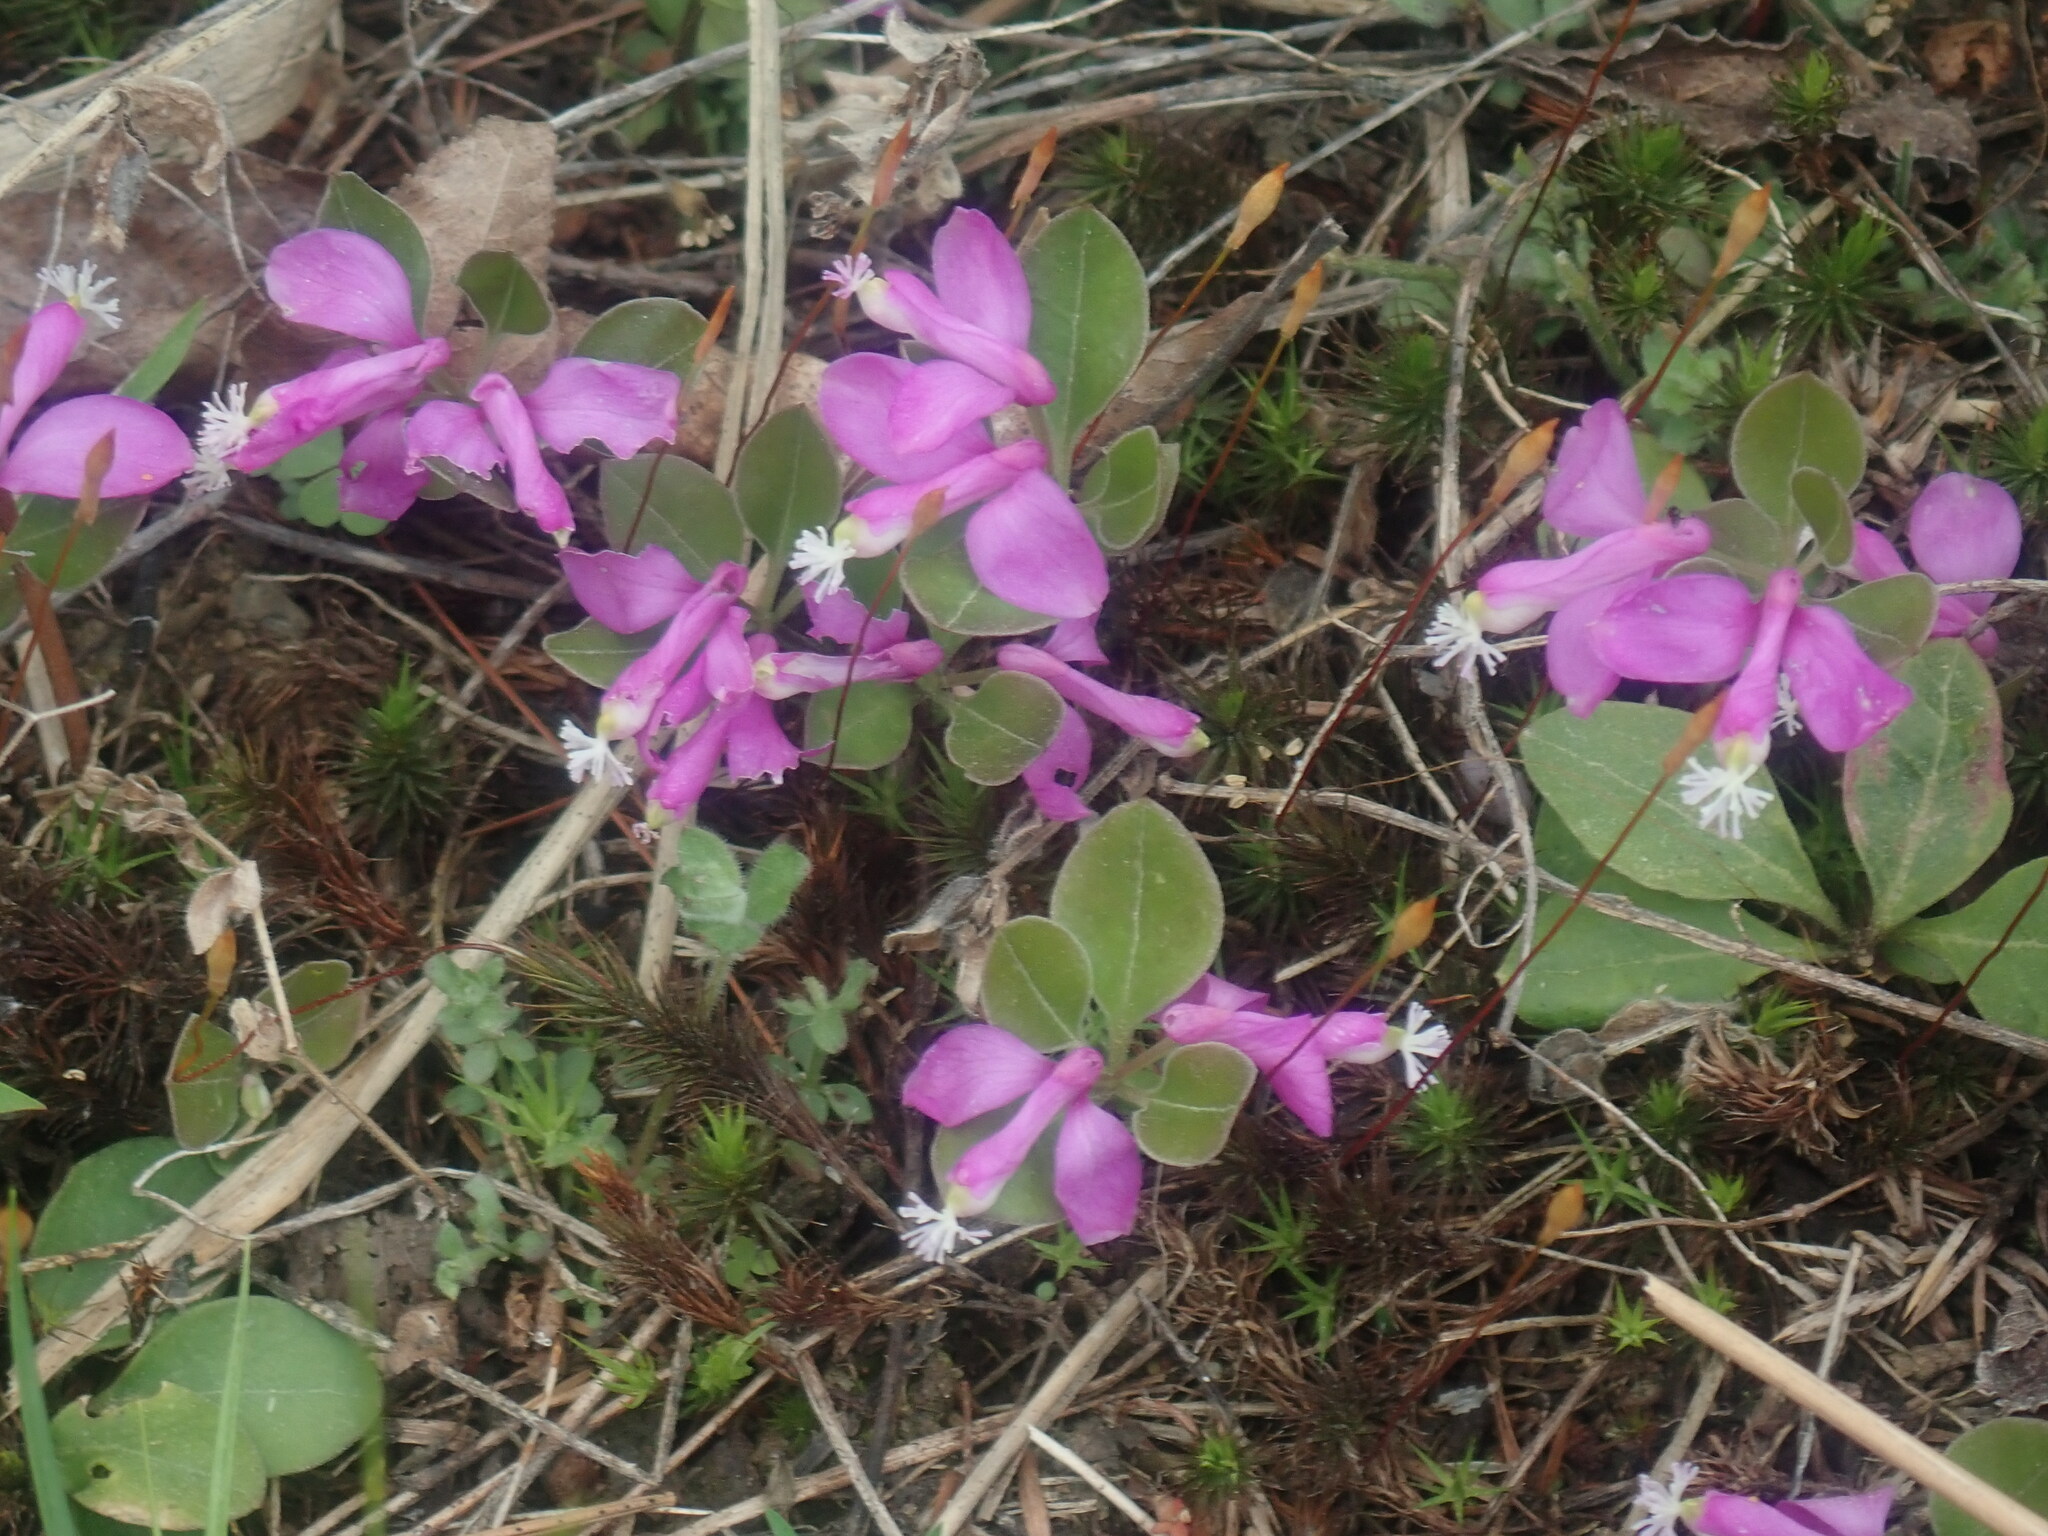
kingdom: Plantae
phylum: Tracheophyta
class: Magnoliopsida
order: Fabales
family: Polygalaceae
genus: Polygaloides
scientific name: Polygaloides paucifolia
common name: Bird-on-the-wing
